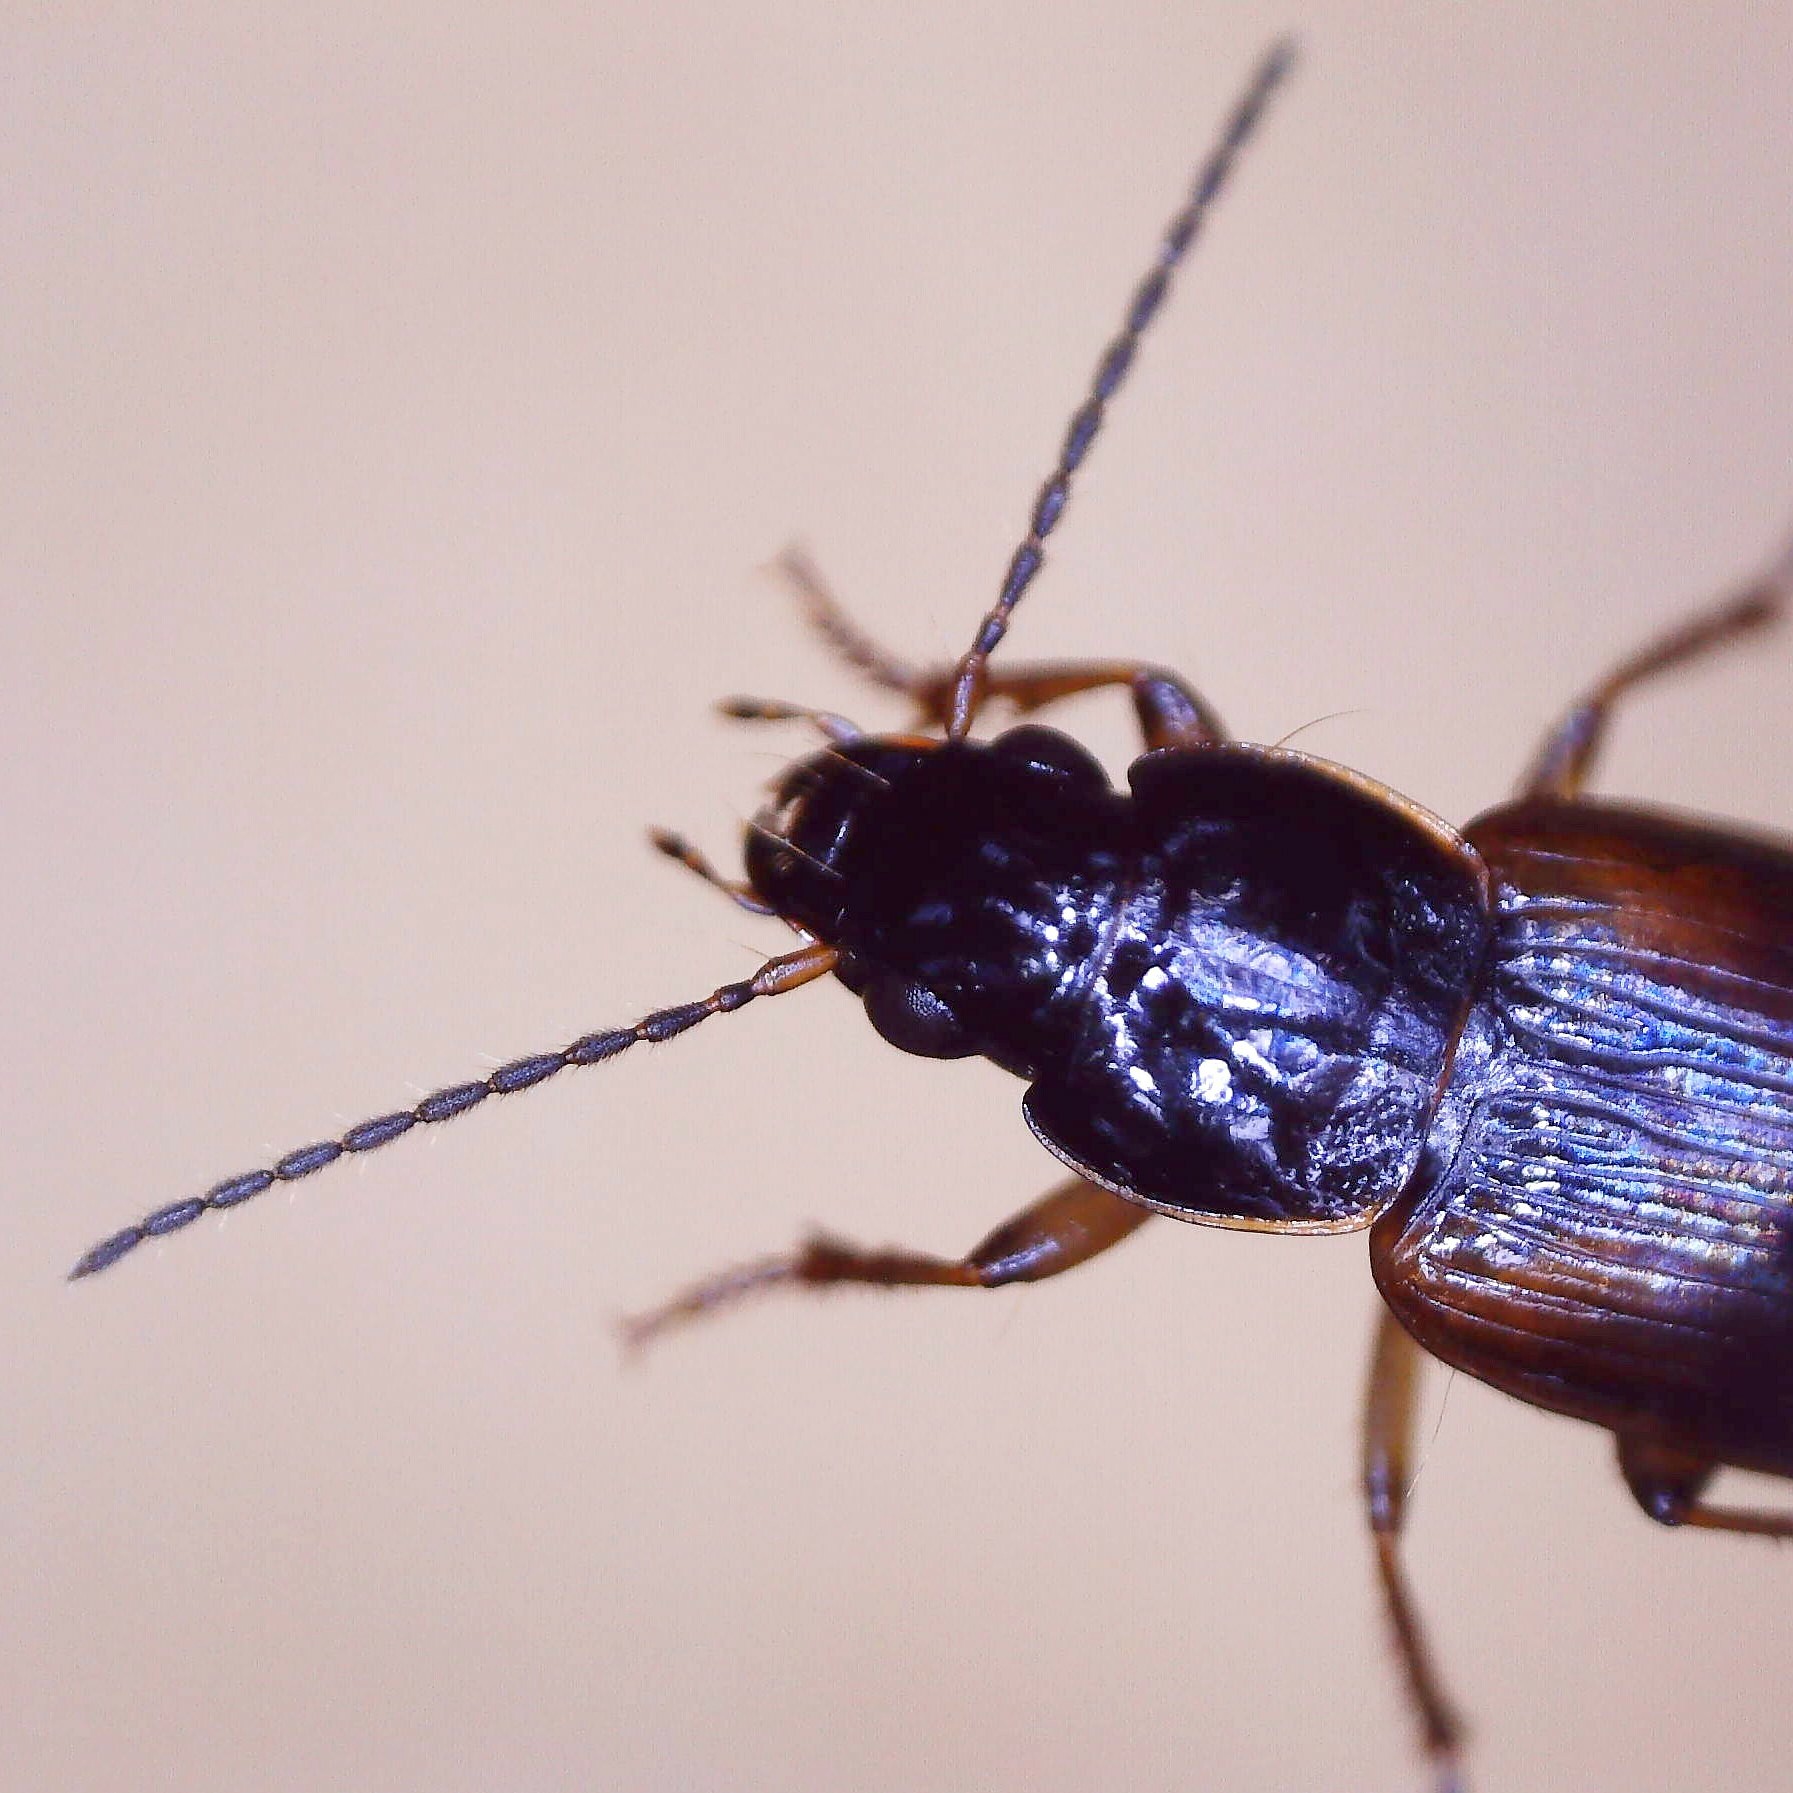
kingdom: Animalia
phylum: Arthropoda
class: Insecta
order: Coleoptera
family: Carabidae
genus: Stenolophus
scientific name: Stenolophus mixtus
